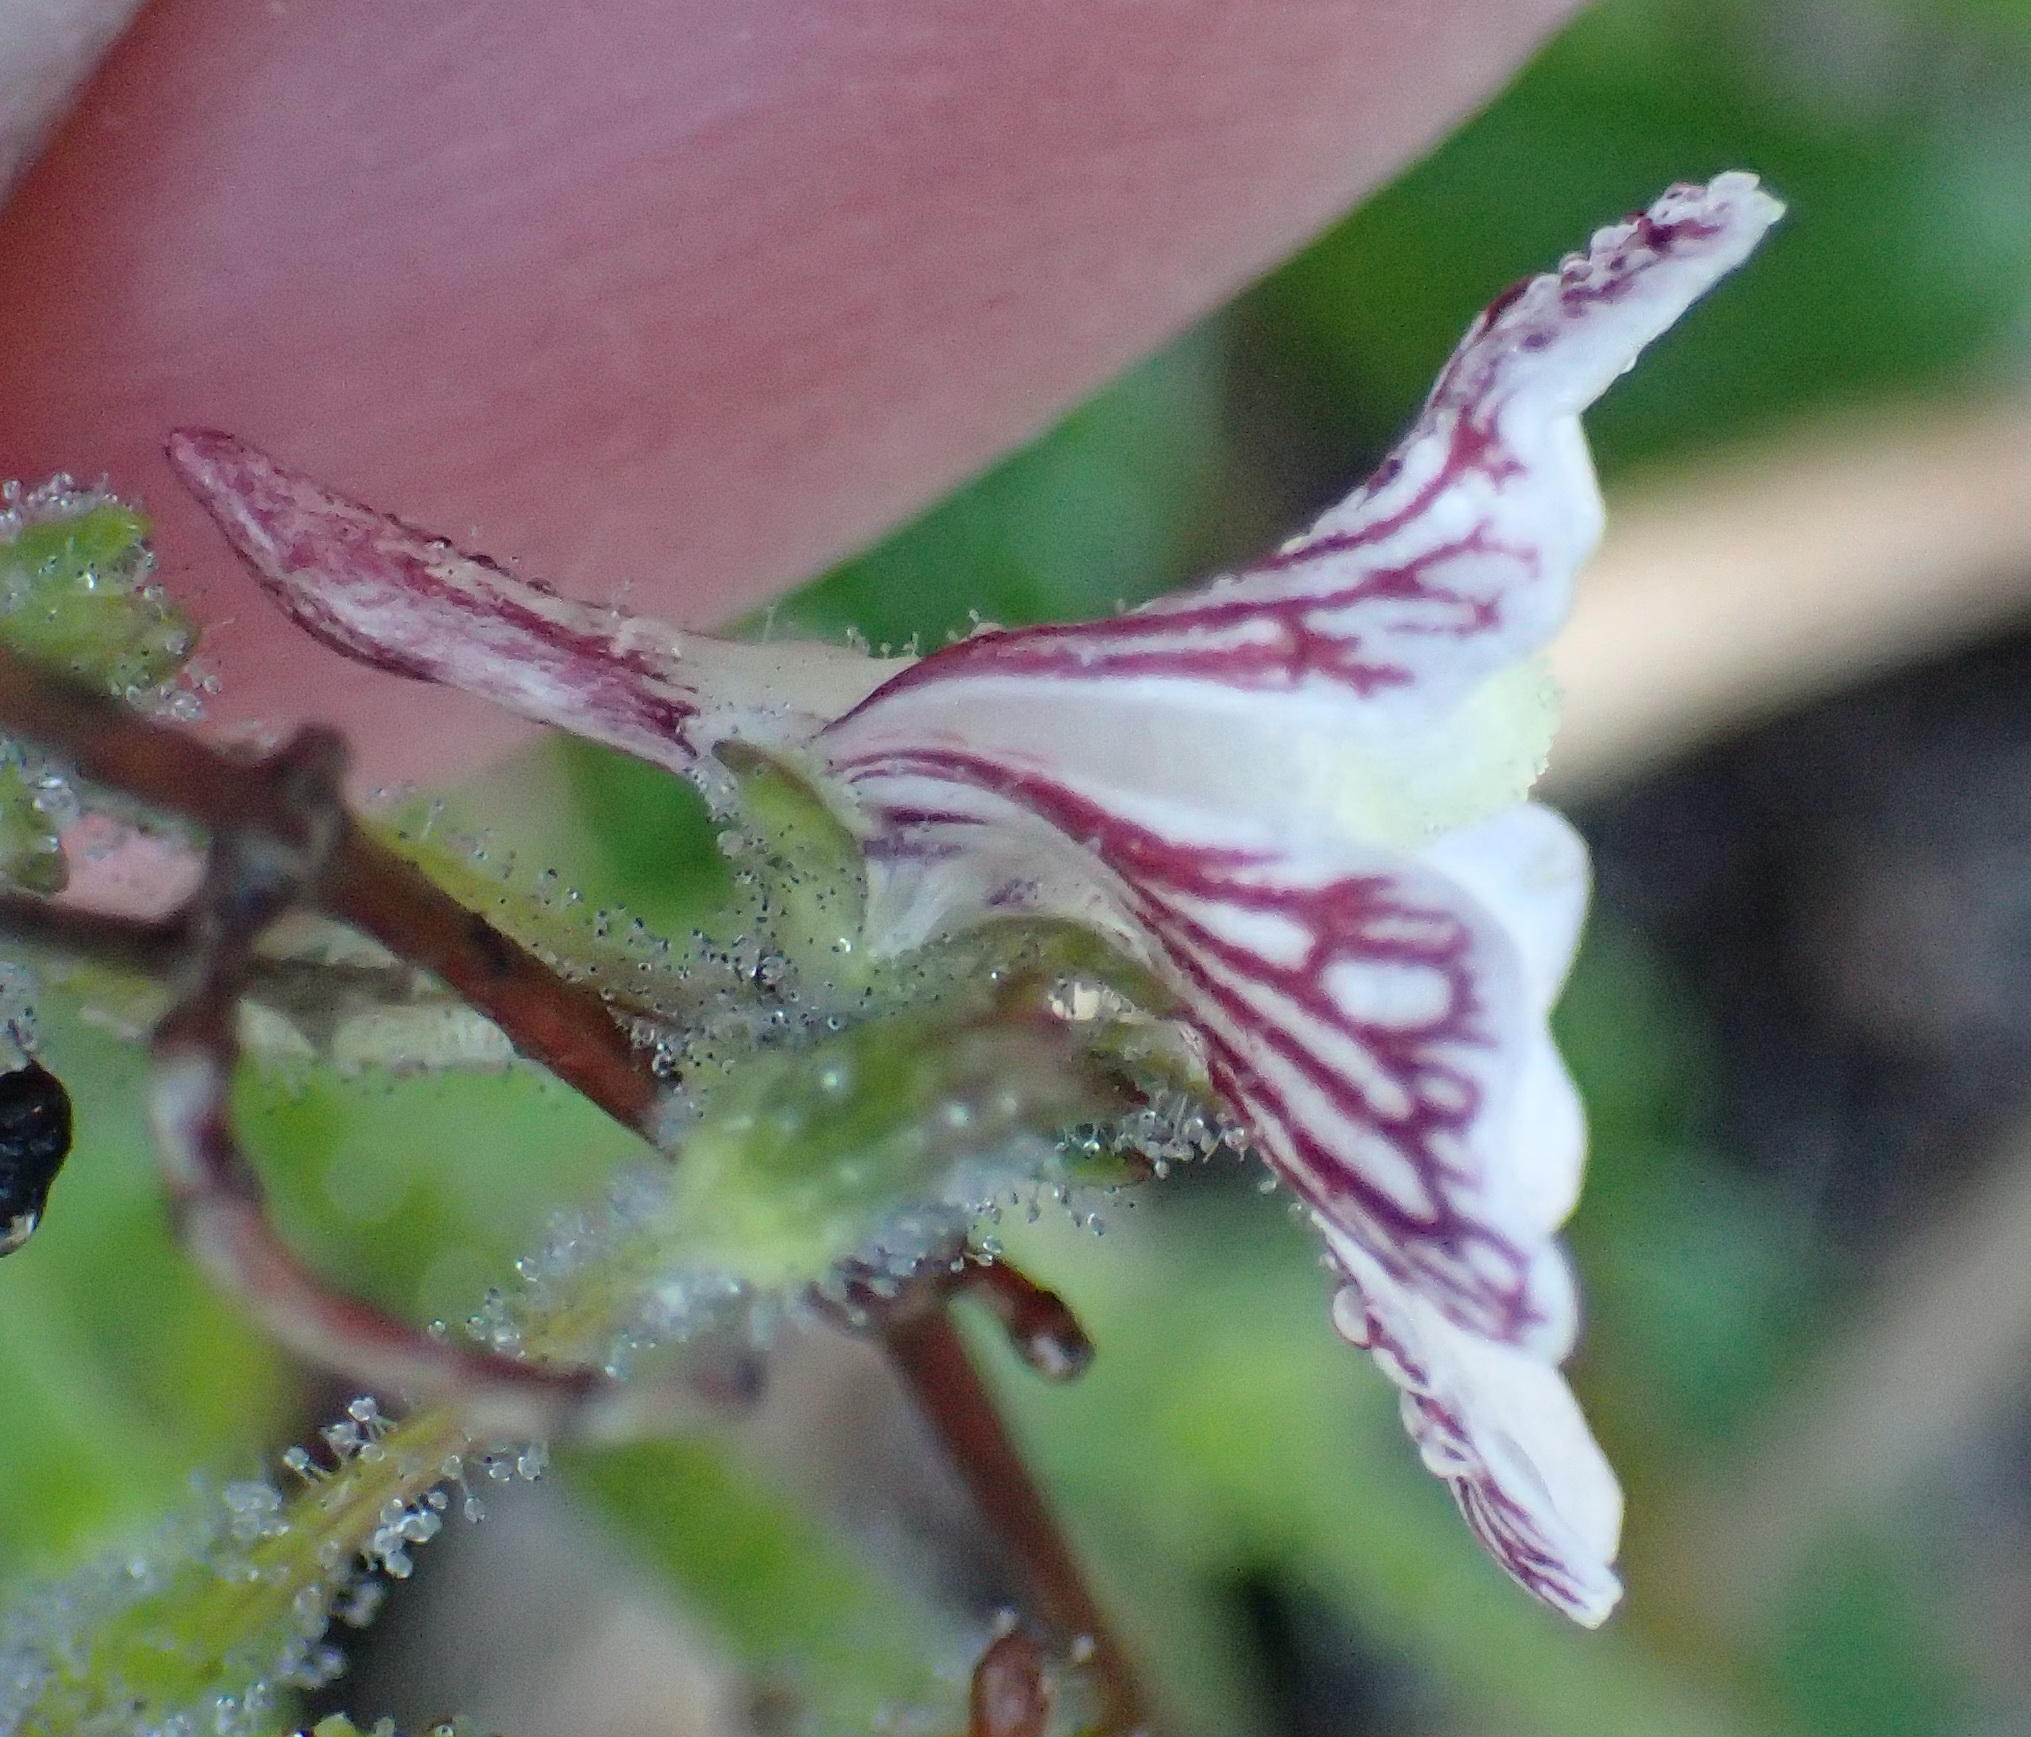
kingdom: Plantae
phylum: Tracheophyta
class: Magnoliopsida
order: Lamiales
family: Scrophulariaceae
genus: Nemesia
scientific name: Nemesia bicornis
